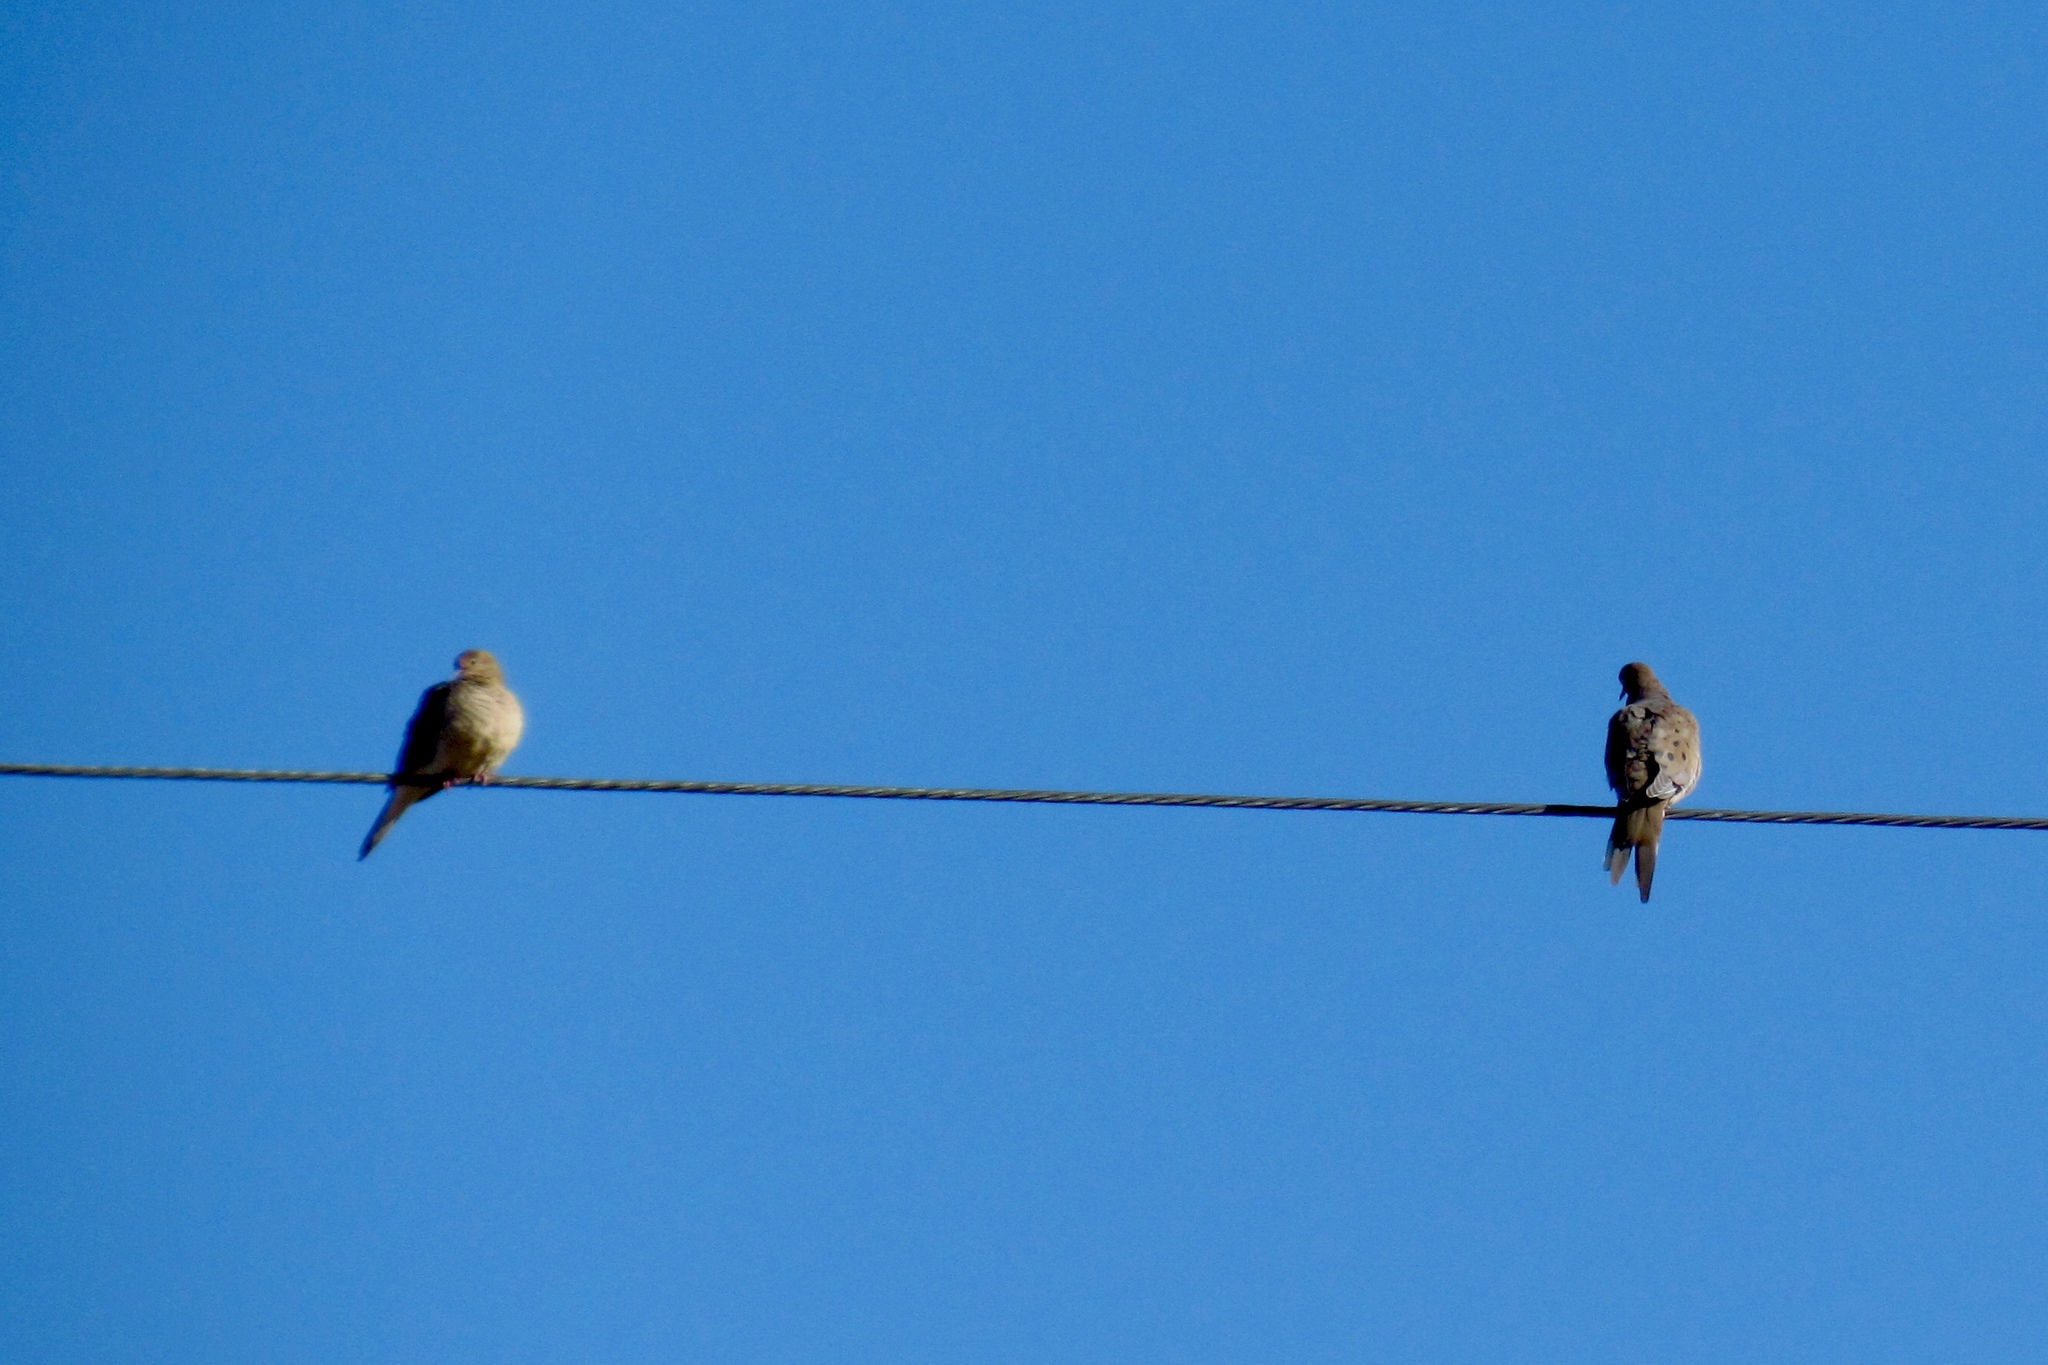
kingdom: Animalia
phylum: Chordata
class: Aves
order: Columbiformes
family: Columbidae
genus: Zenaida
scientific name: Zenaida macroura
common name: Mourning dove
